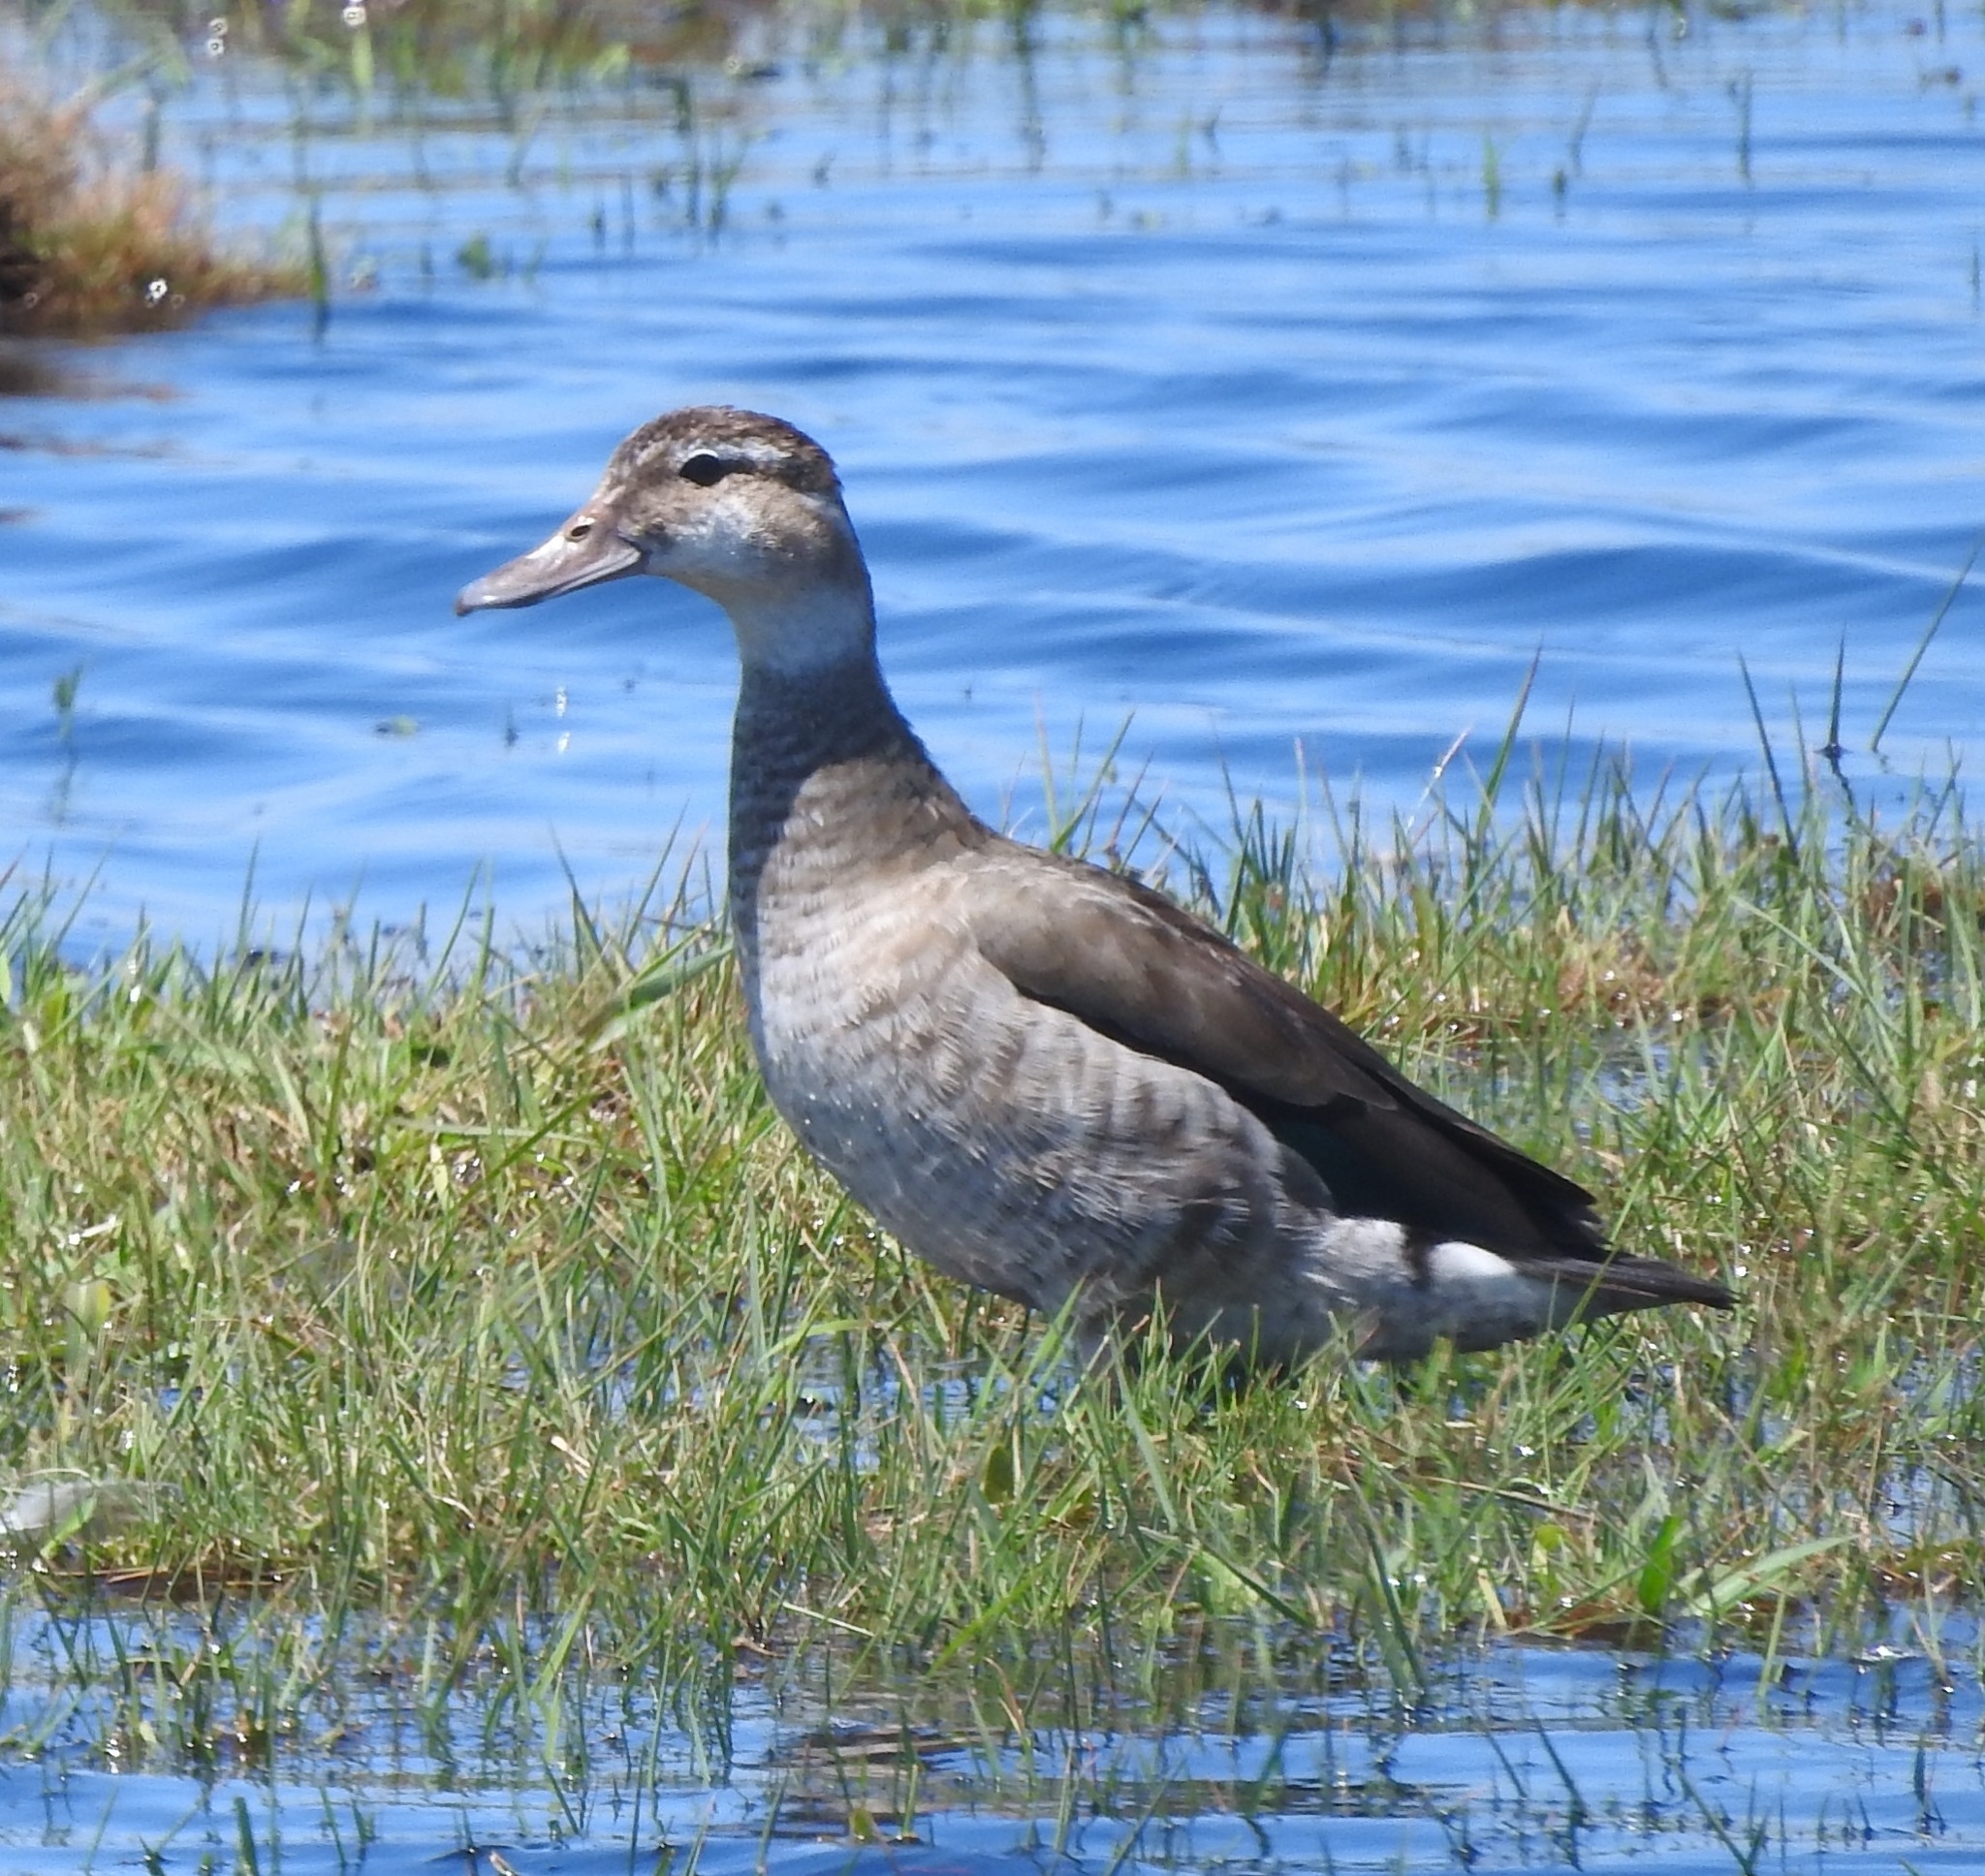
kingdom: Animalia
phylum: Chordata
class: Aves
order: Anseriformes
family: Anatidae
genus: Callonetta
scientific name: Callonetta leucophrys
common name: Ringed teal
